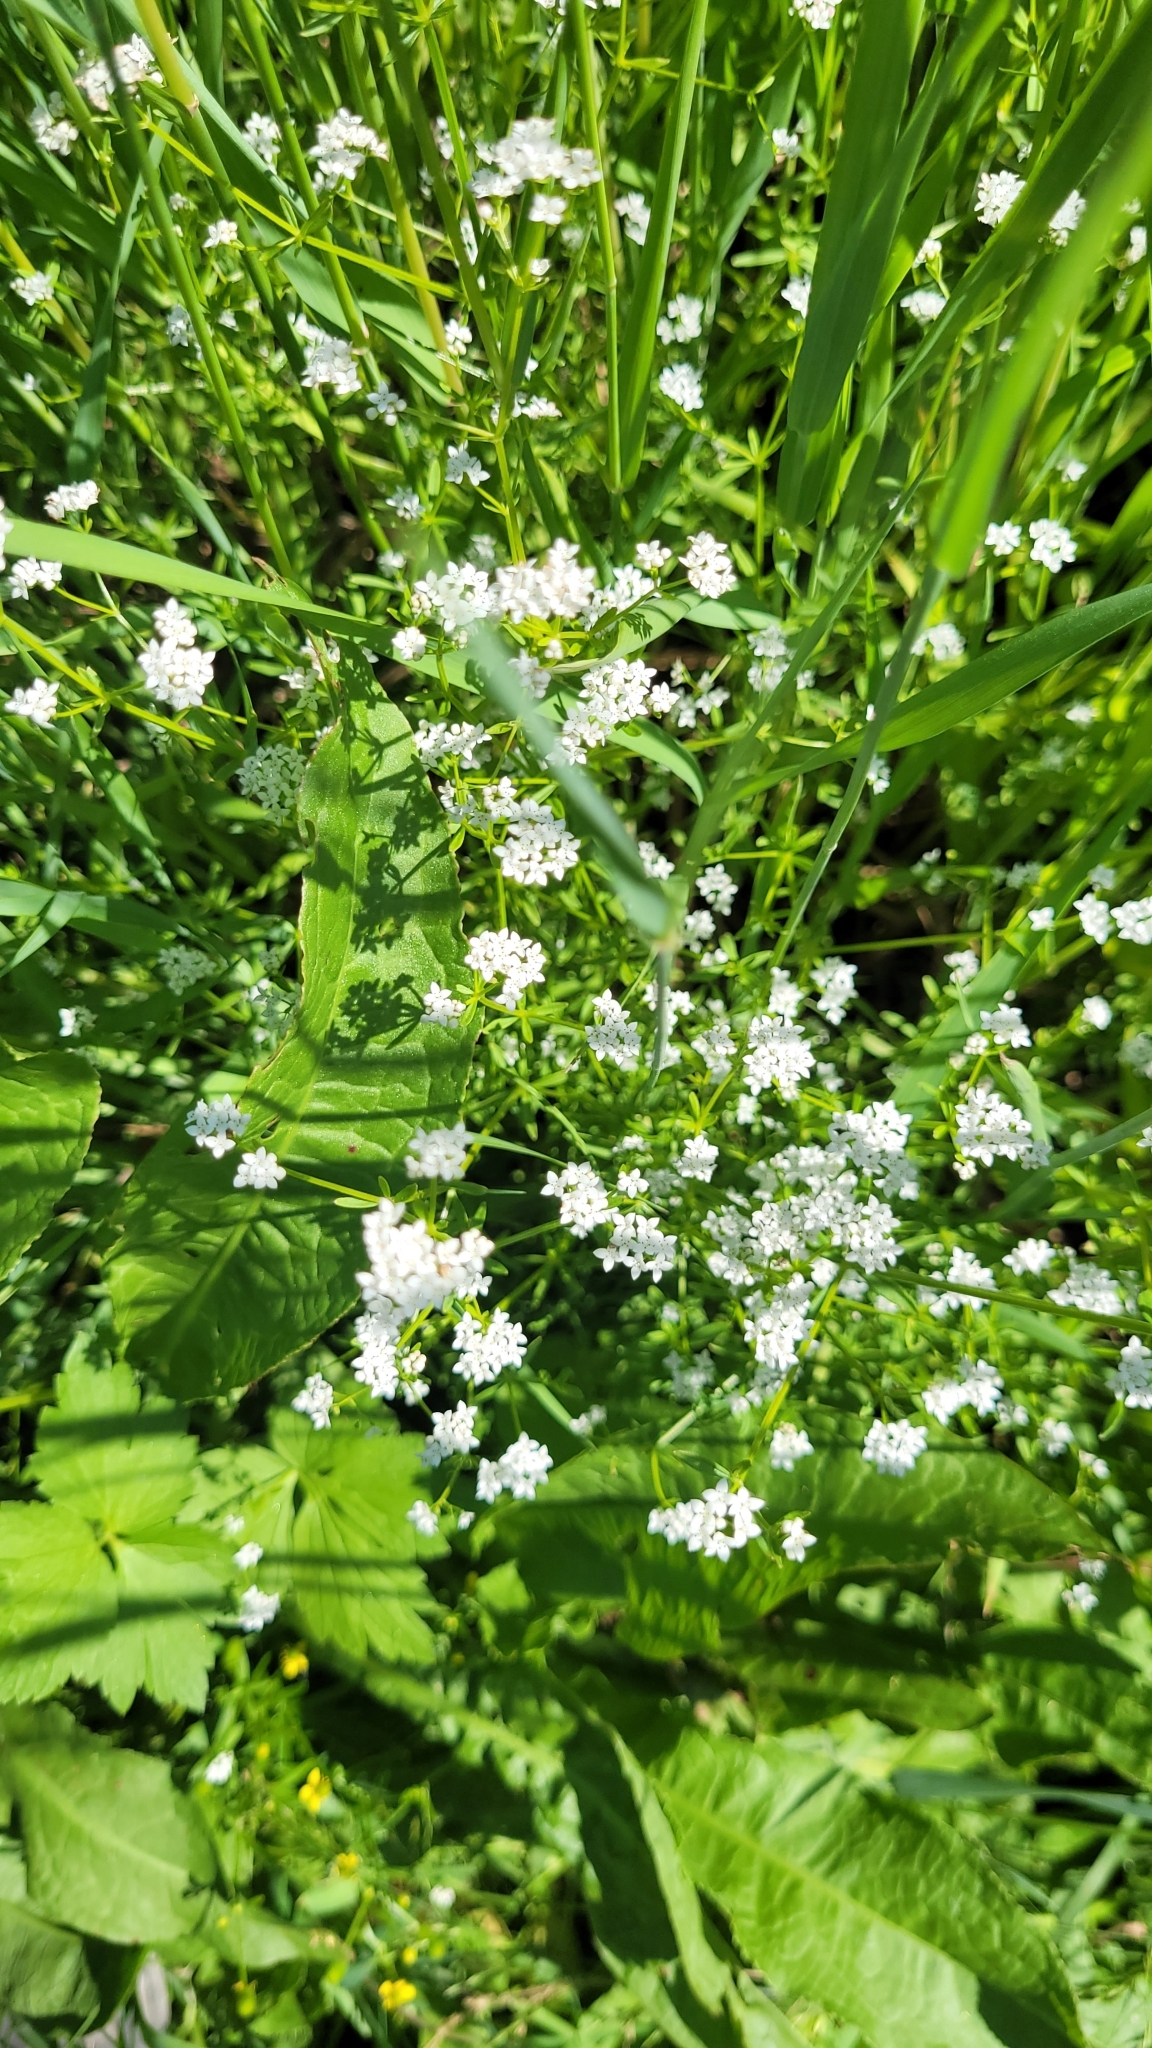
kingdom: Plantae
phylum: Tracheophyta
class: Magnoliopsida
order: Gentianales
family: Rubiaceae
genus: Galium
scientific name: Galium palustre
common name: Common marsh-bedstraw
